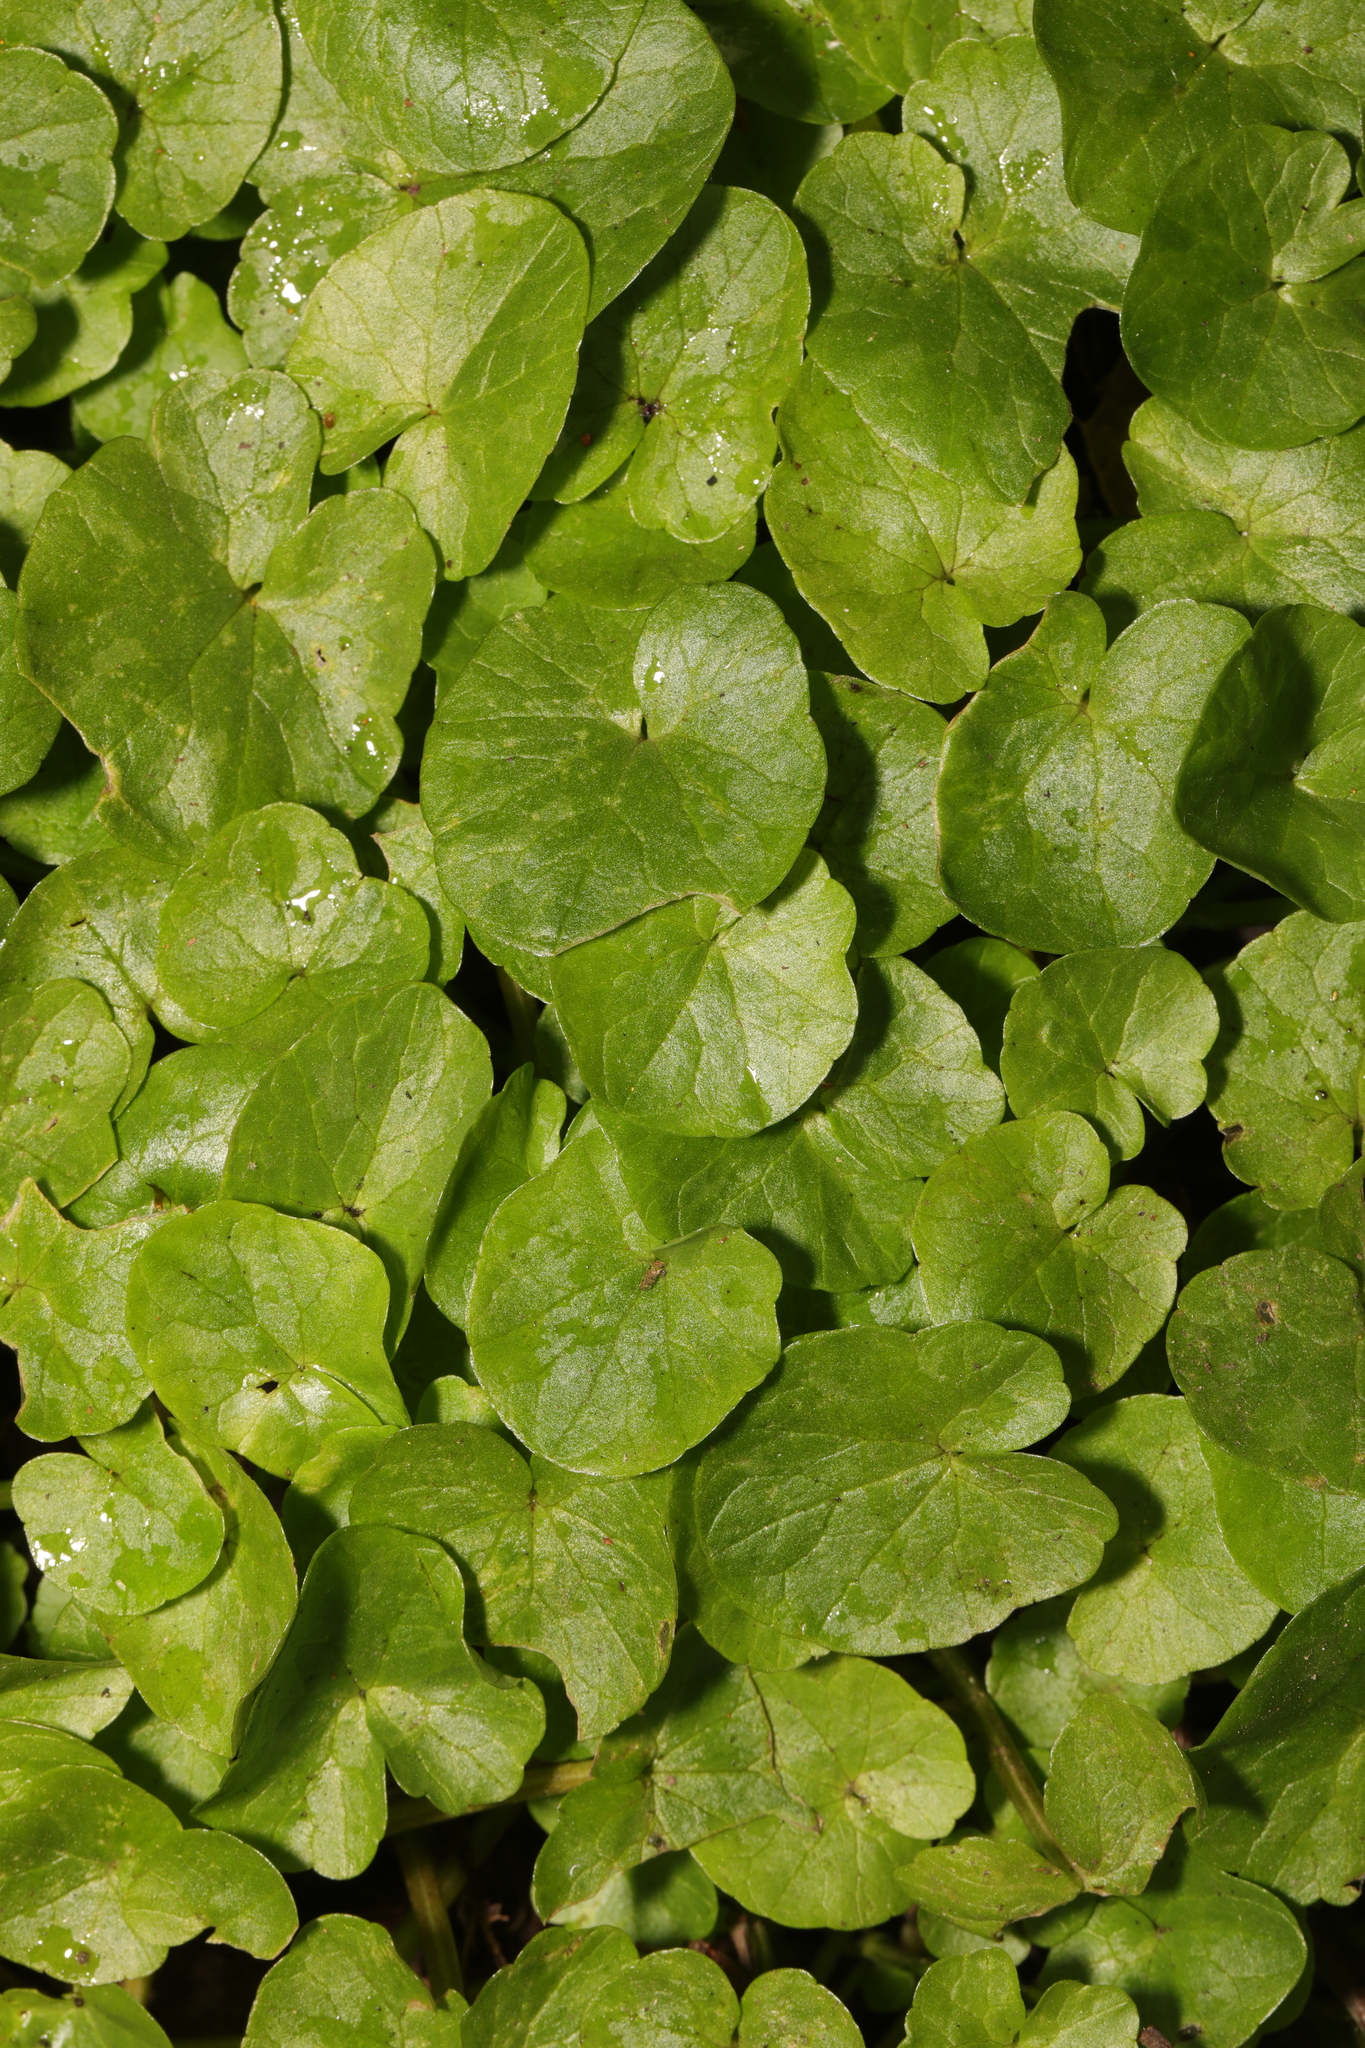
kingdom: Plantae
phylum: Tracheophyta
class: Magnoliopsida
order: Ranunculales
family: Ranunculaceae
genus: Ficaria
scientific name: Ficaria verna
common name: Lesser celandine
